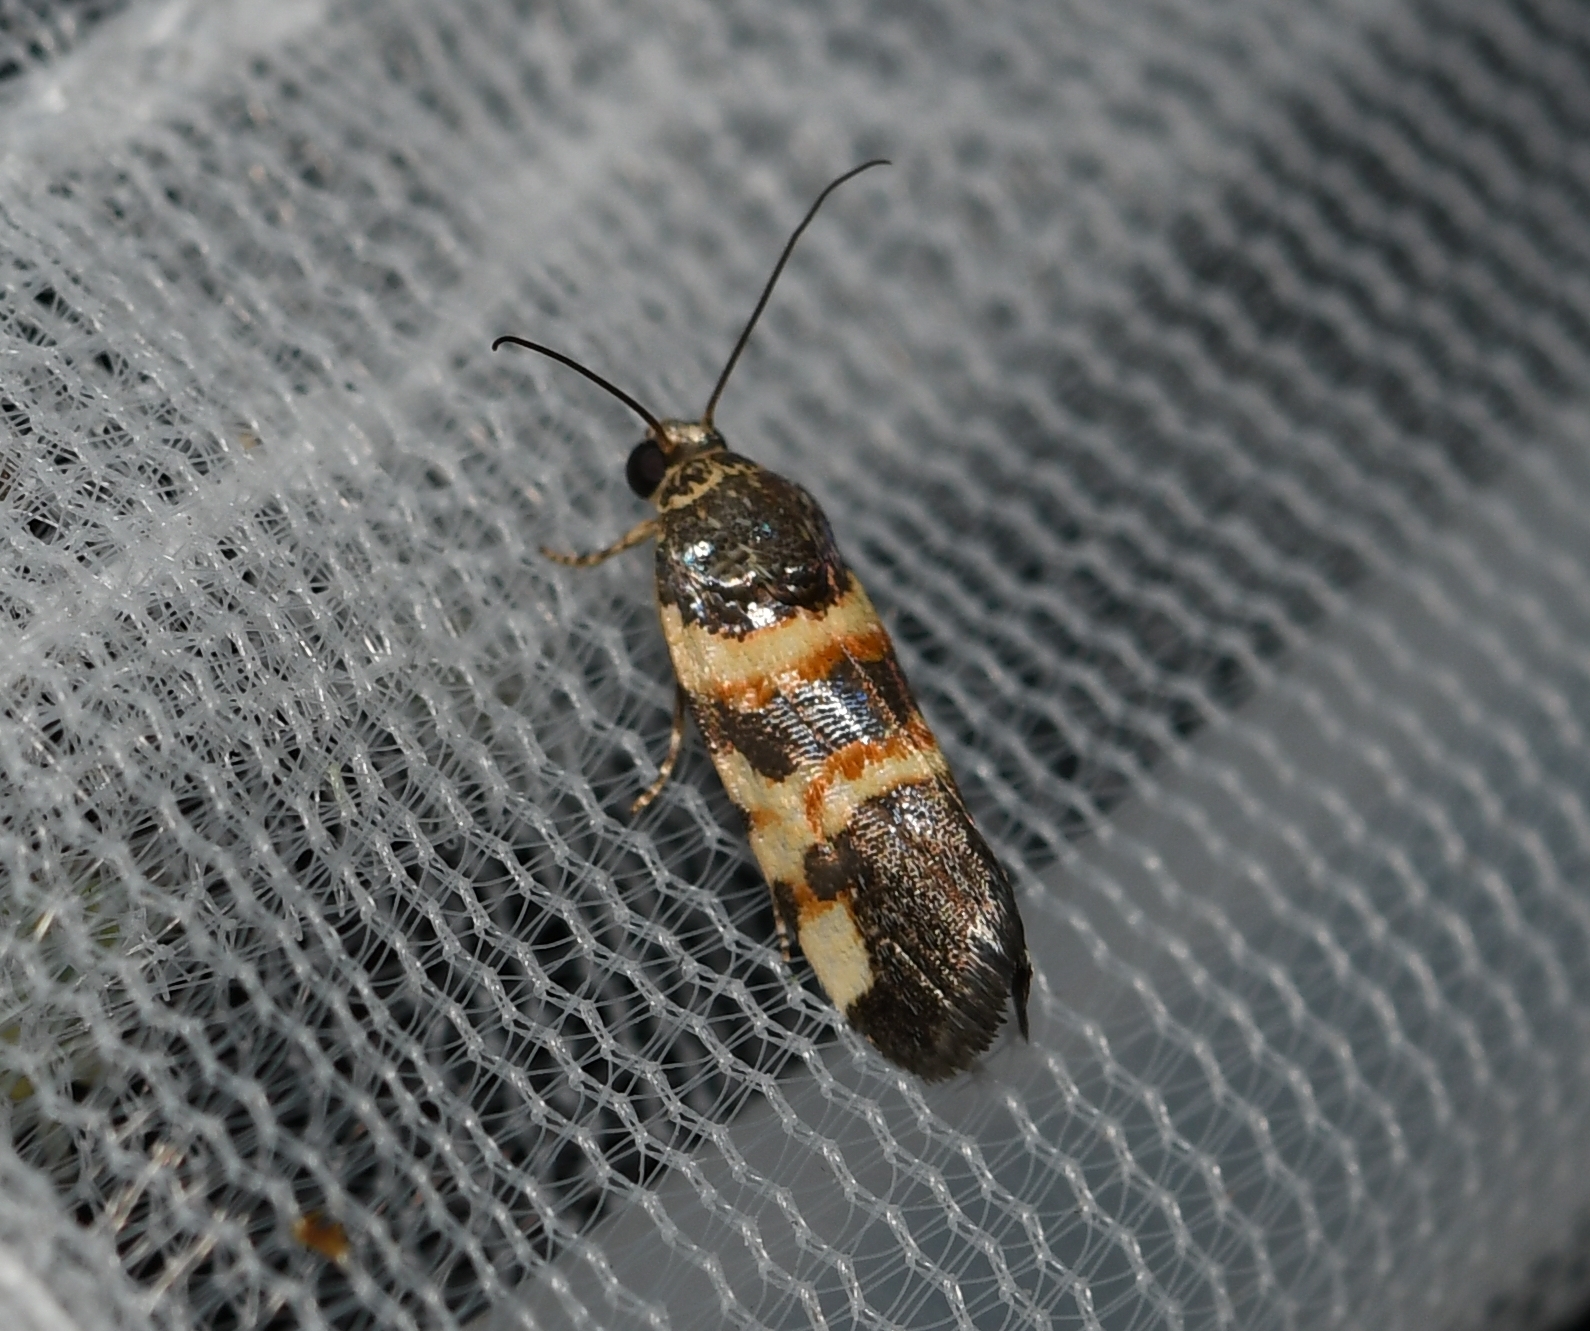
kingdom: Animalia
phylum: Arthropoda
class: Insecta
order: Lepidoptera
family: Noctuidae
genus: Spragueia
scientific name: Spragueia funeralis
